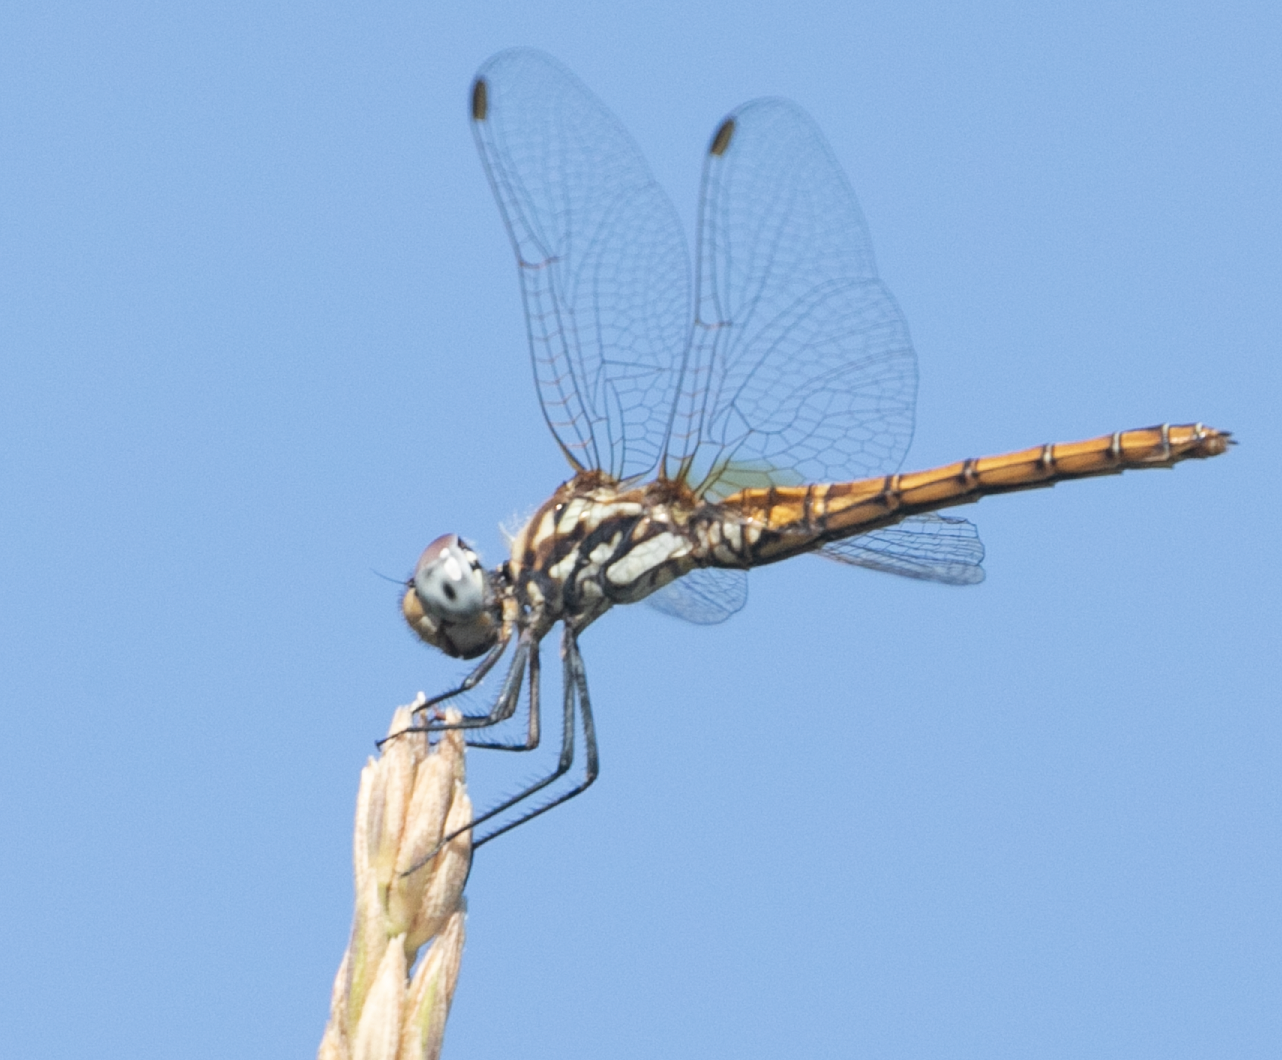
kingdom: Animalia
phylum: Arthropoda
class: Insecta
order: Odonata
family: Libellulidae
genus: Trithemis
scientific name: Trithemis annulata
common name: Violet dropwing
